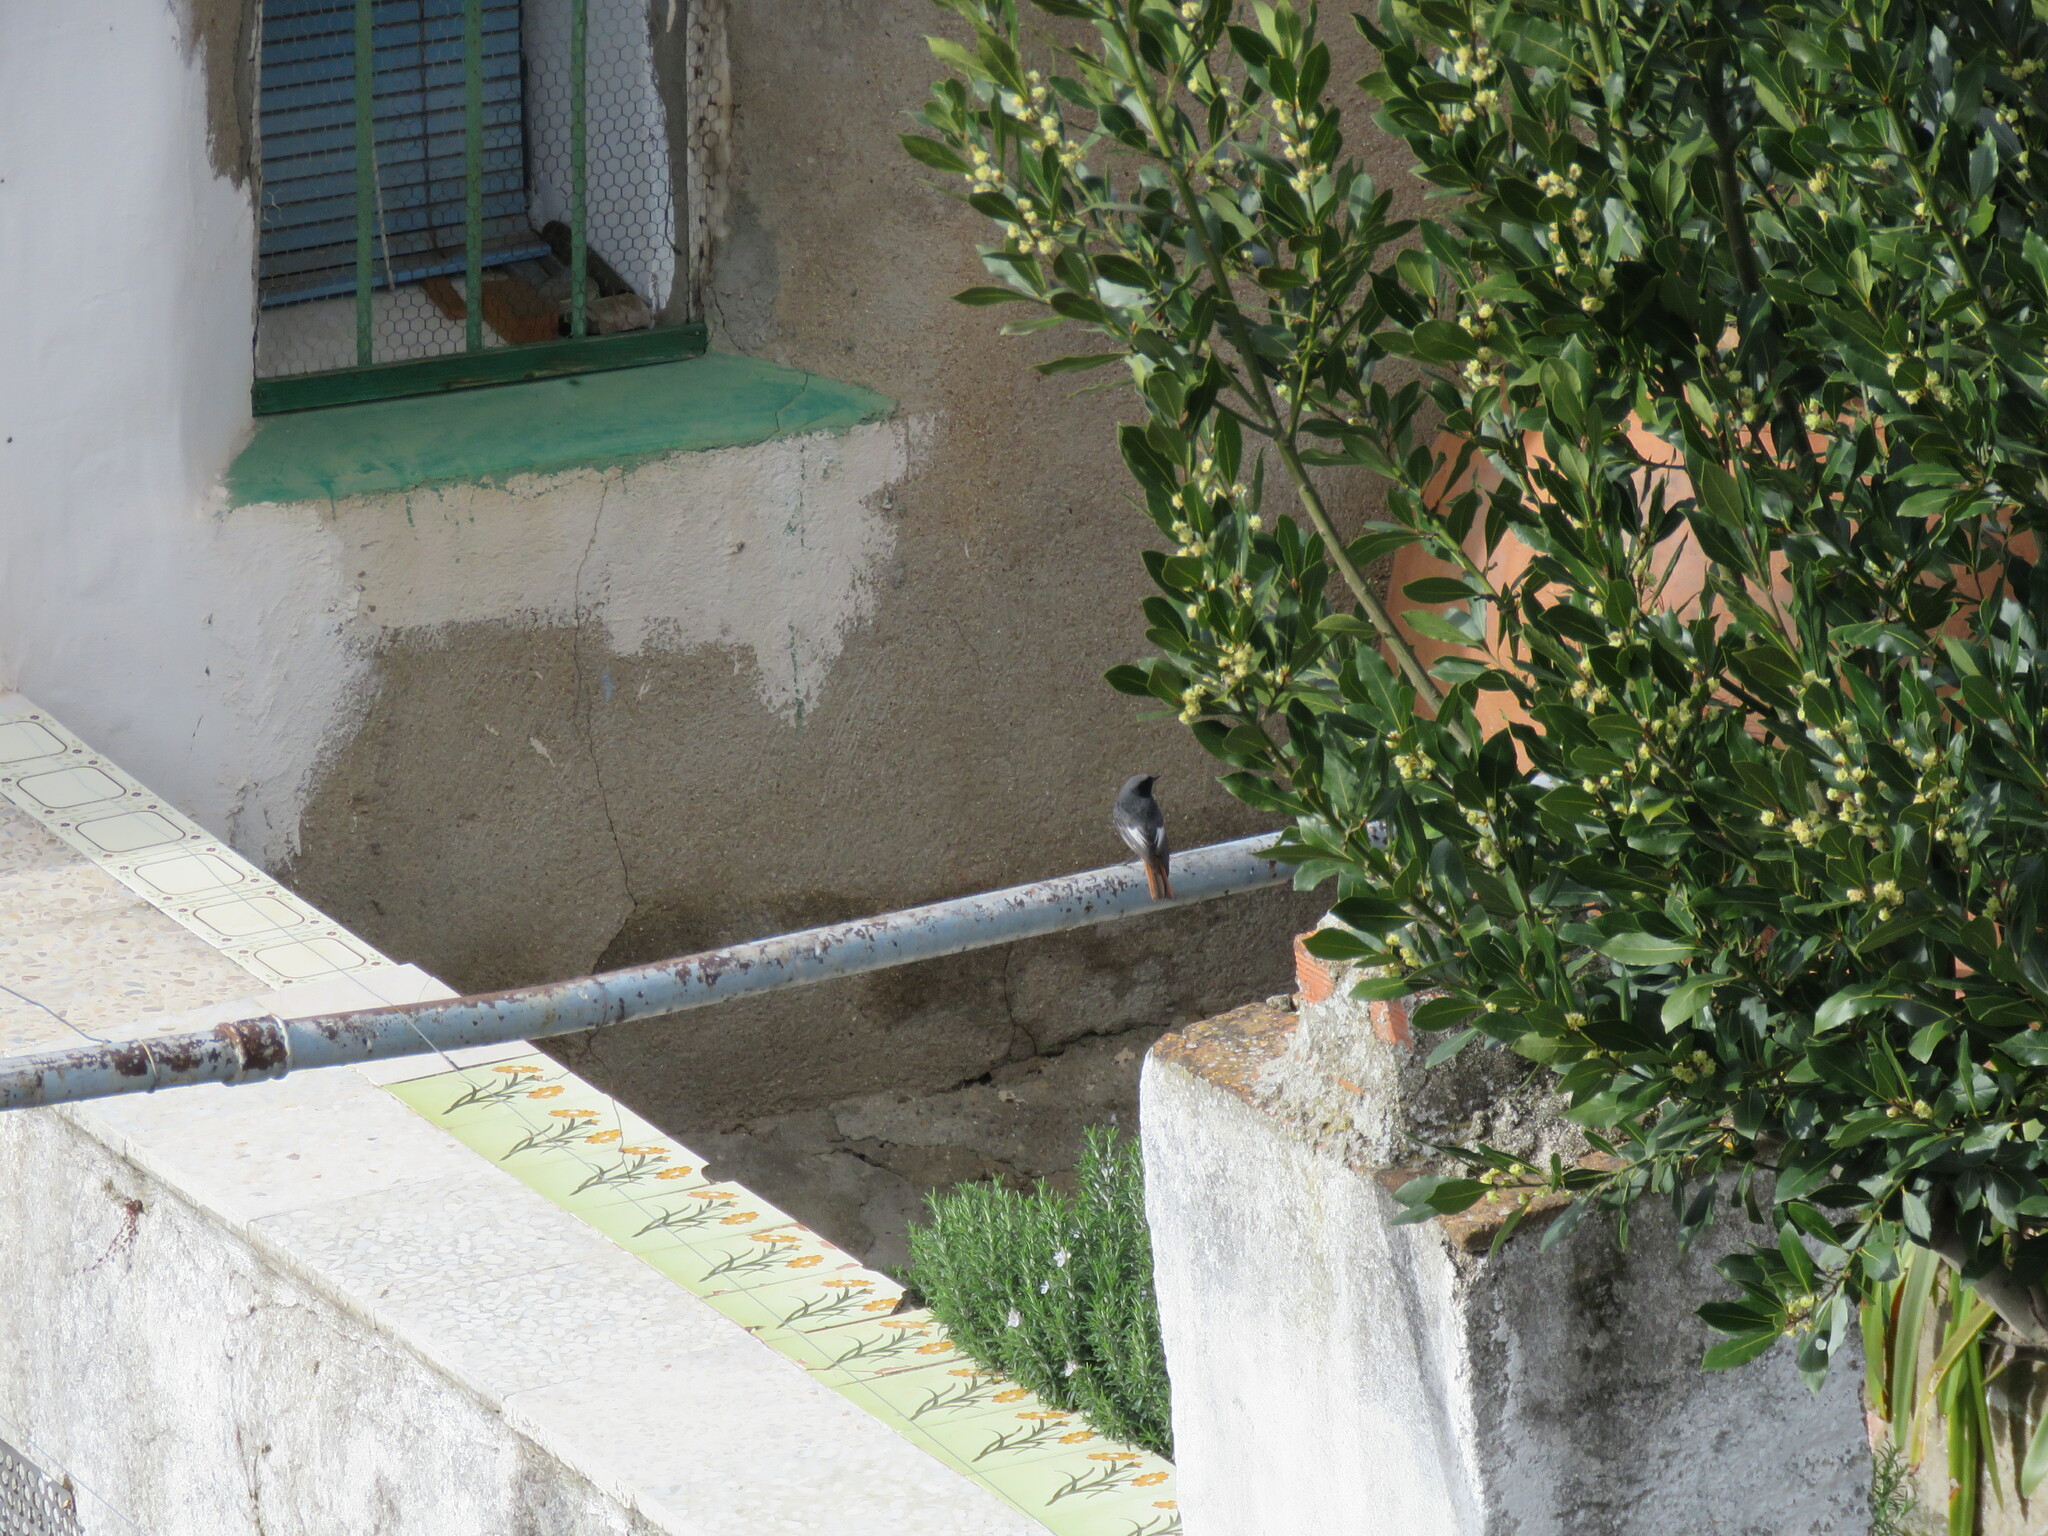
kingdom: Animalia
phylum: Chordata
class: Aves
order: Passeriformes
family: Muscicapidae
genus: Phoenicurus
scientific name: Phoenicurus ochruros
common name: Black redstart
